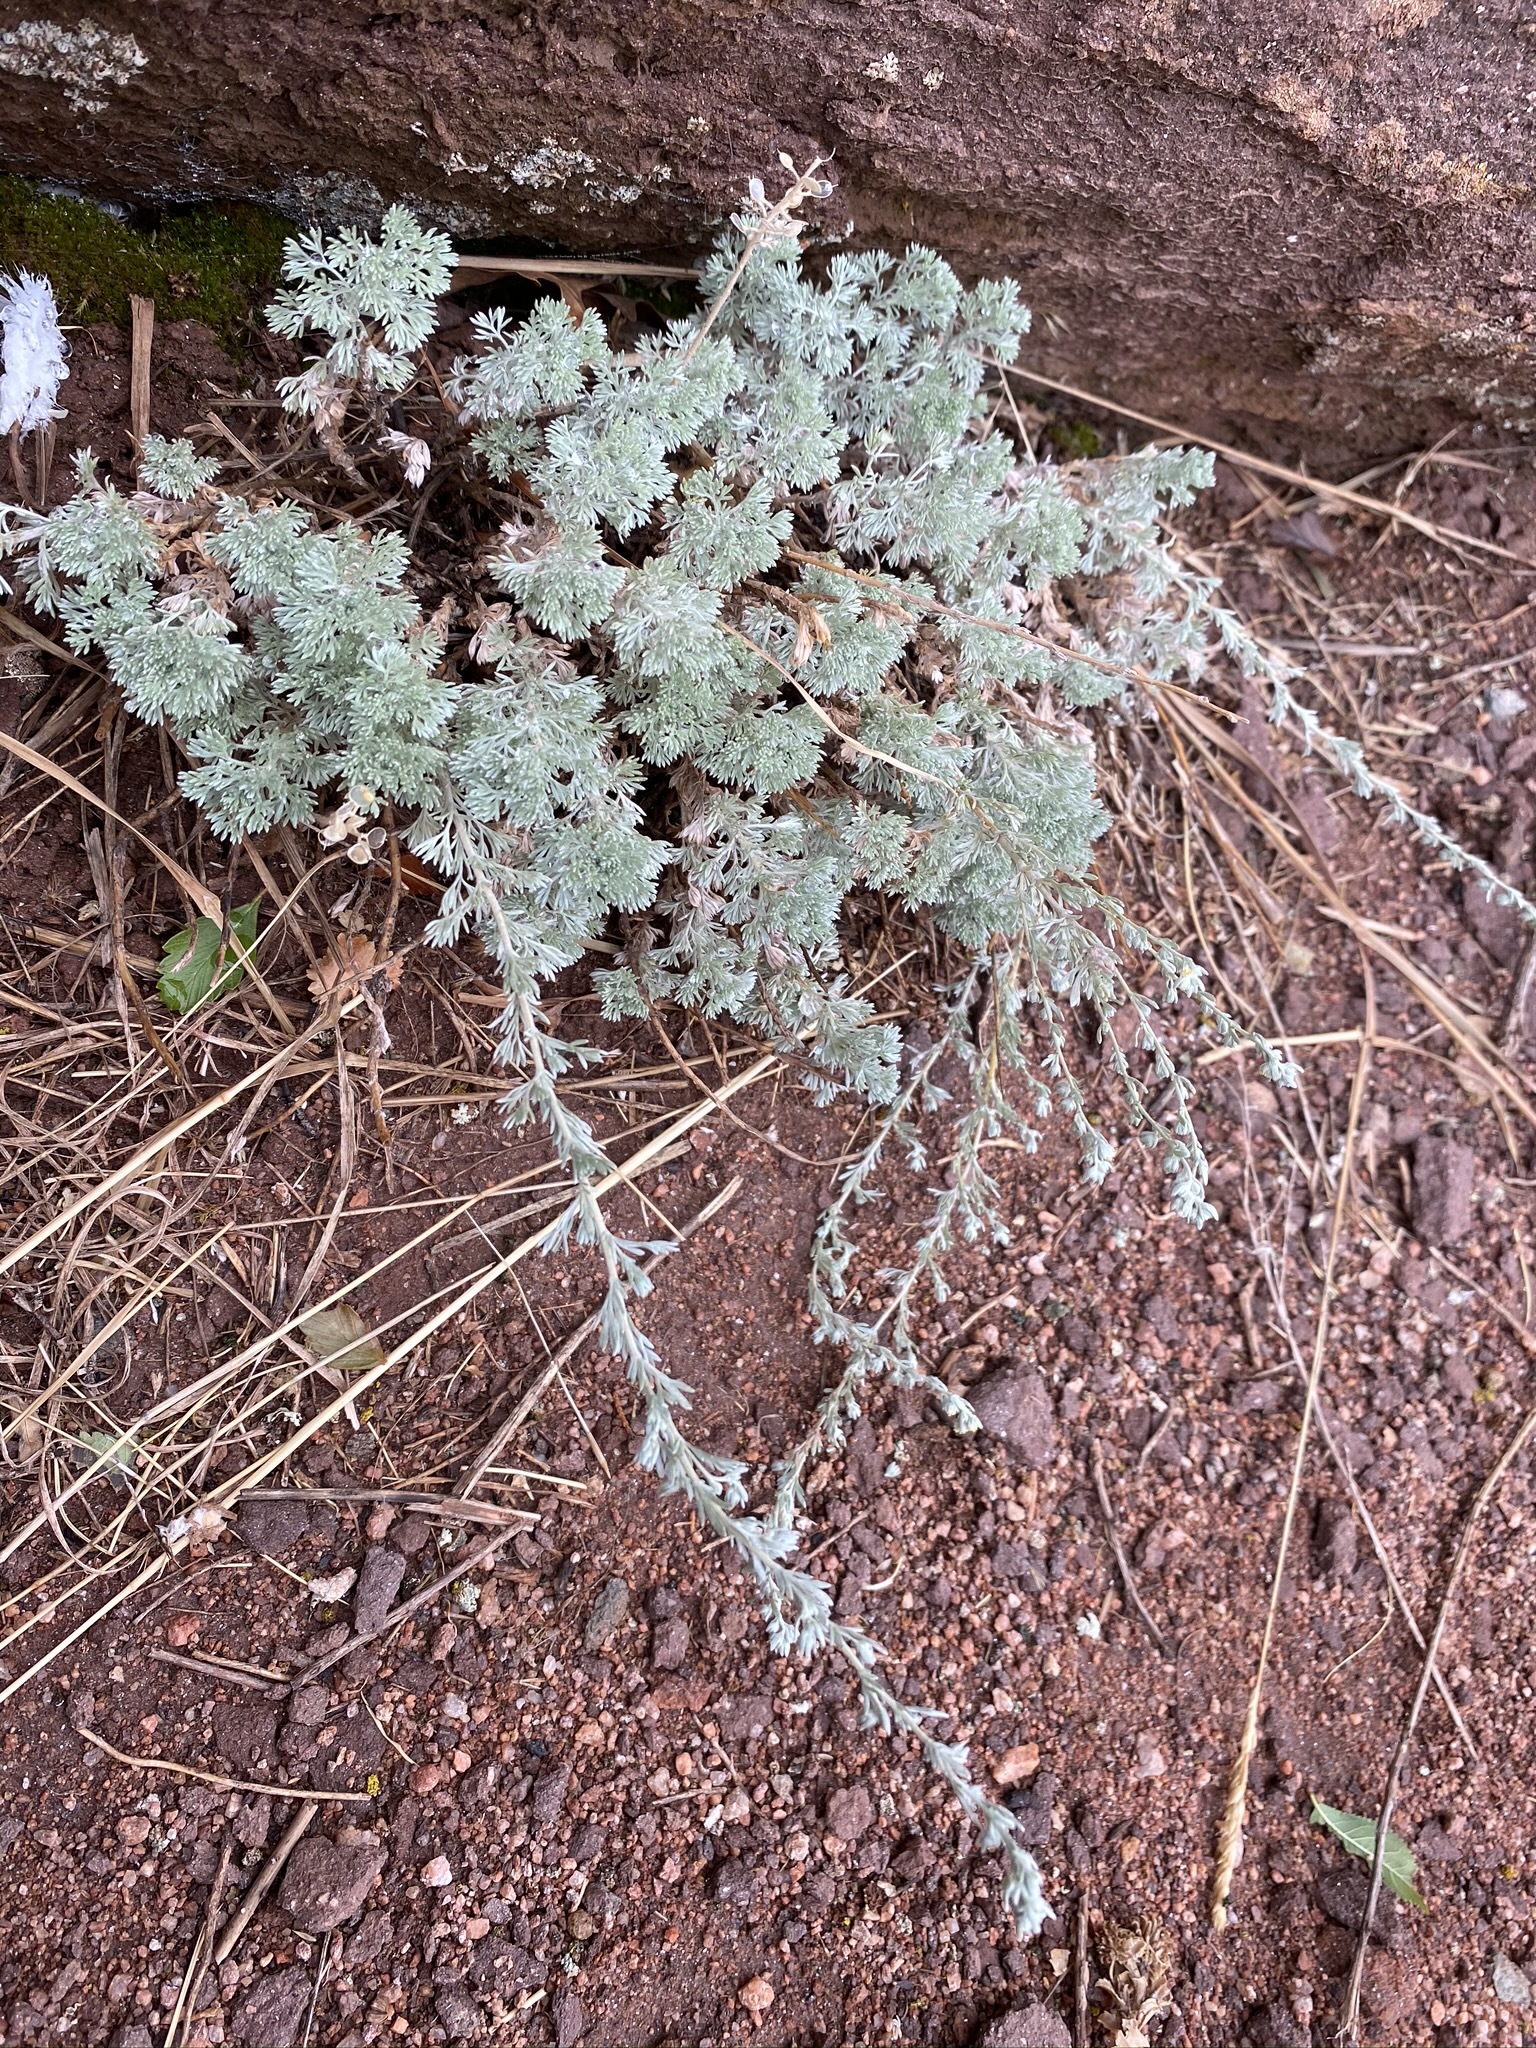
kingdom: Plantae
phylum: Tracheophyta
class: Magnoliopsida
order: Asterales
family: Asteraceae
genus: Artemisia
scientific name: Artemisia frigida
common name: Prairie sagewort
